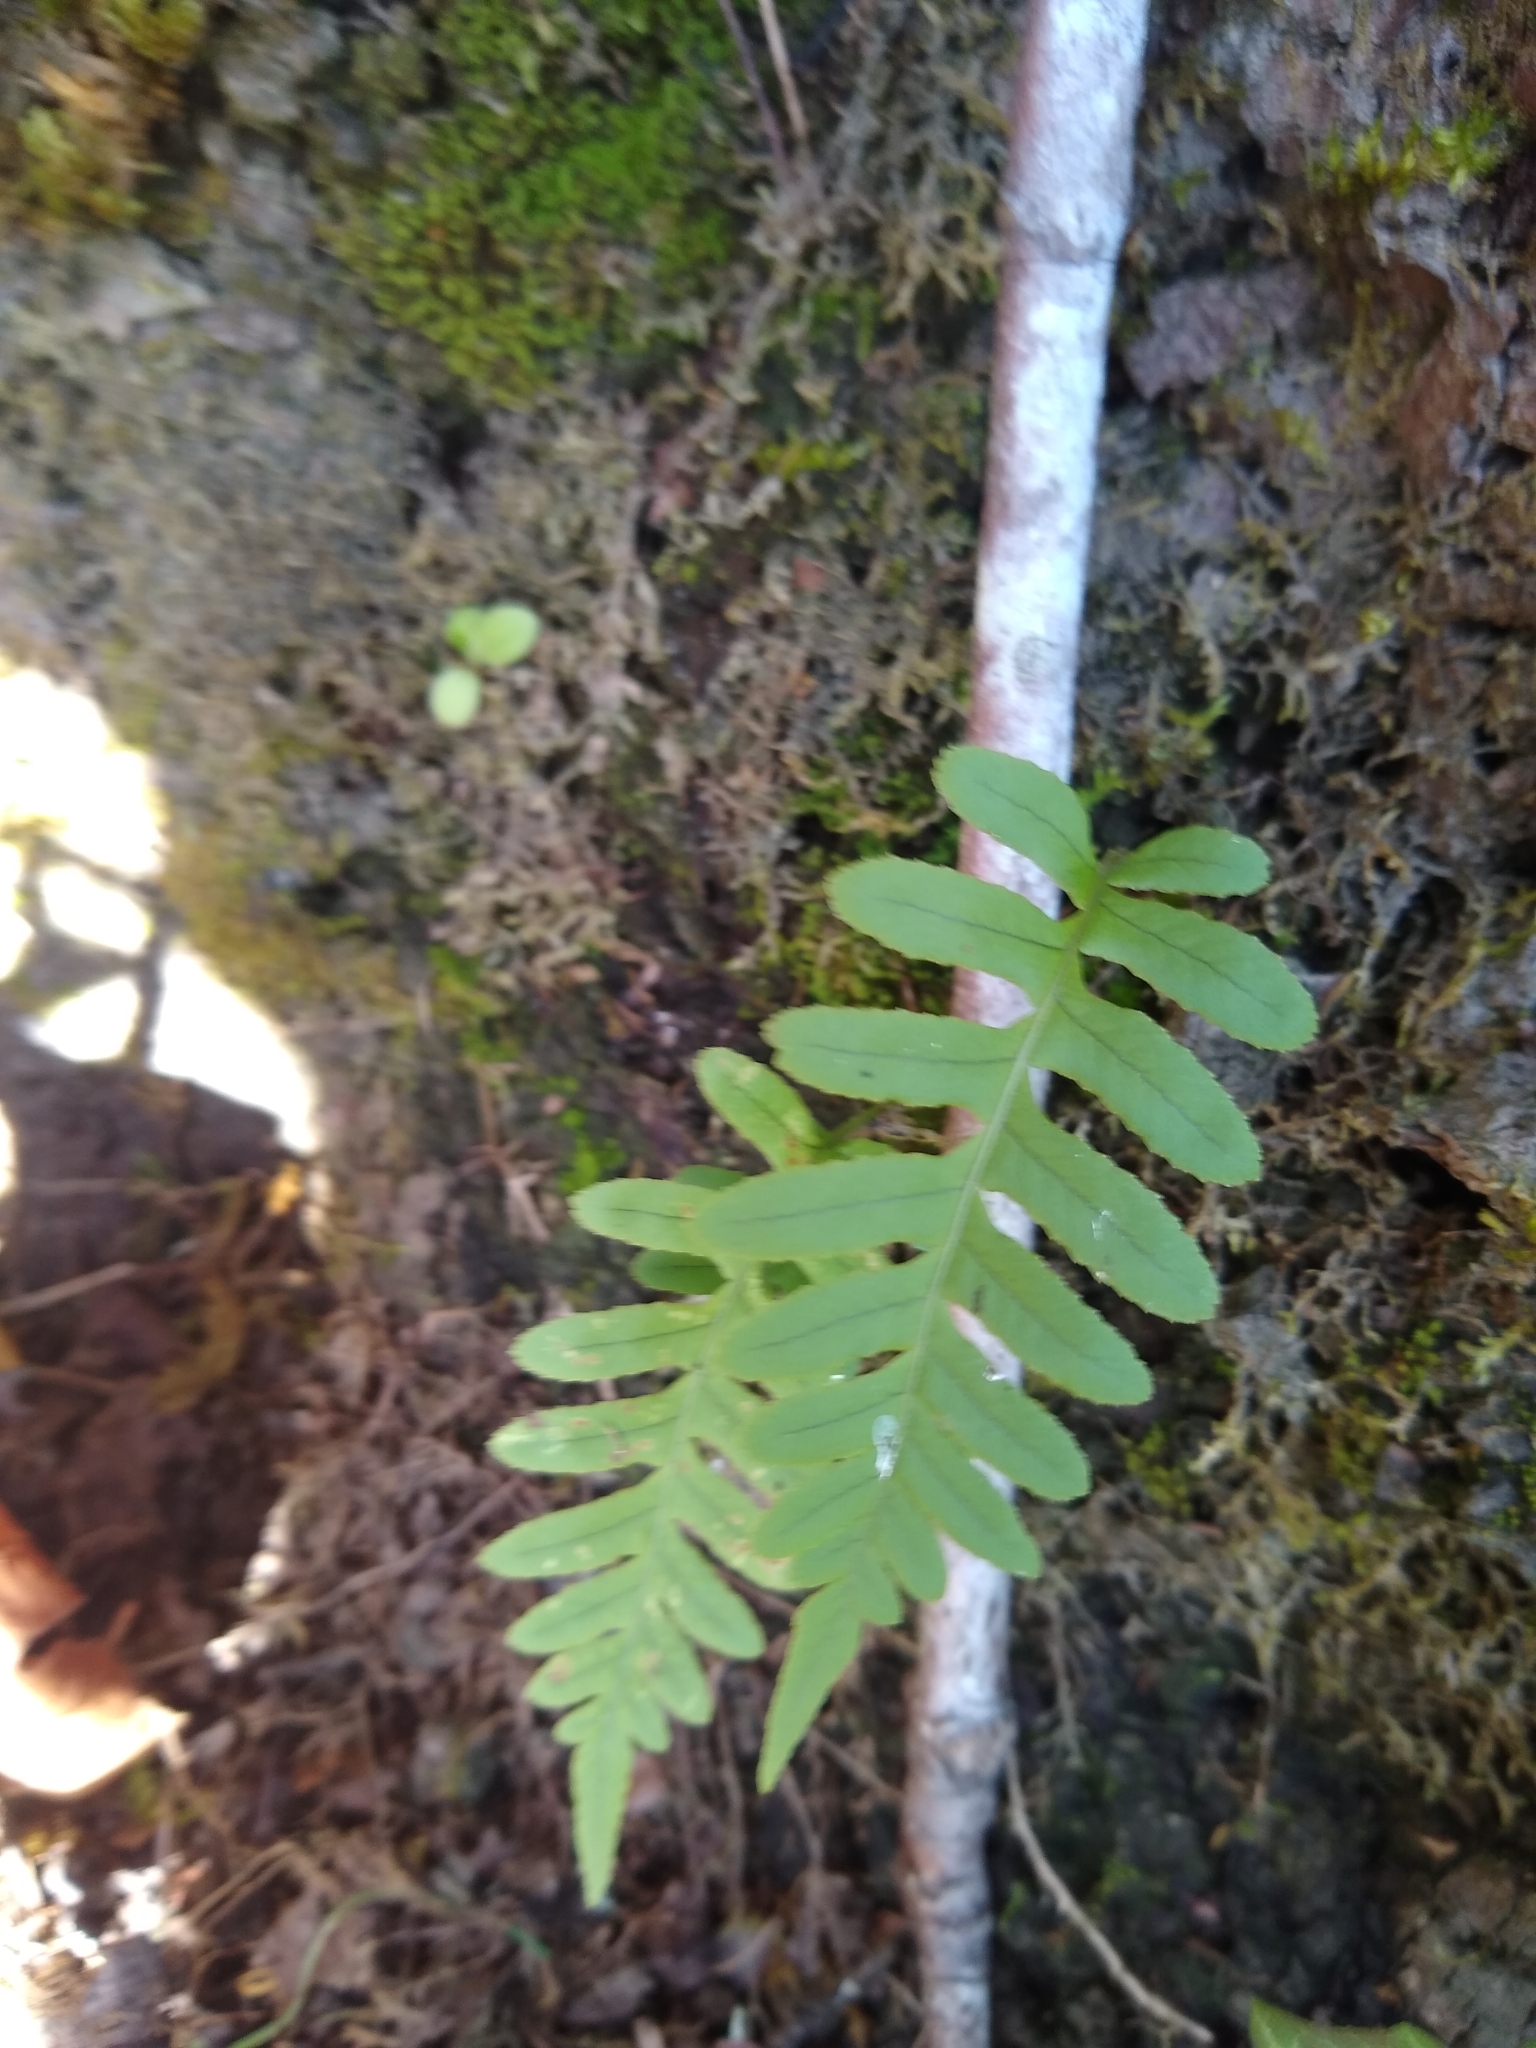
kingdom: Plantae
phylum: Tracheophyta
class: Polypodiopsida
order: Polypodiales
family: Polypodiaceae
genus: Polypodium
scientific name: Polypodium glycyrrhiza
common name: Licorice fern
